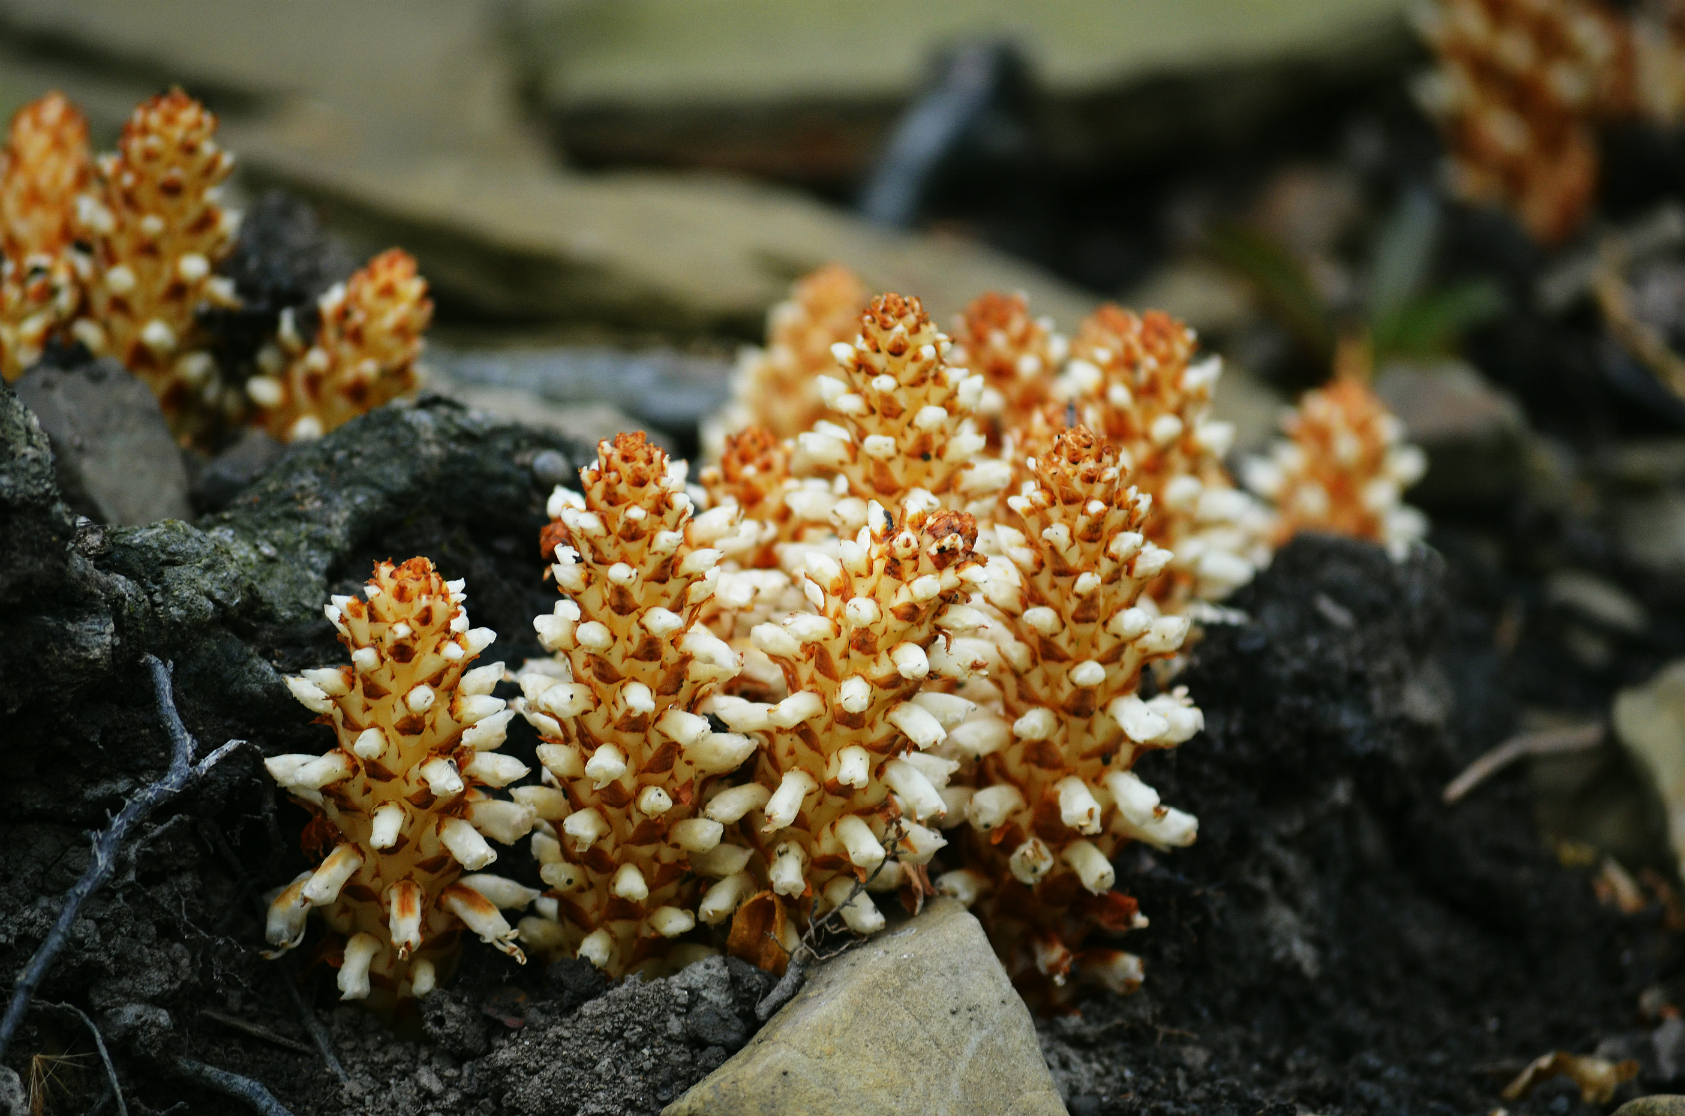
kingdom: Plantae
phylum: Tracheophyta
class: Magnoliopsida
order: Lamiales
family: Orobanchaceae
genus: Conopholis
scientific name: Conopholis americana
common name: American cancer-root
